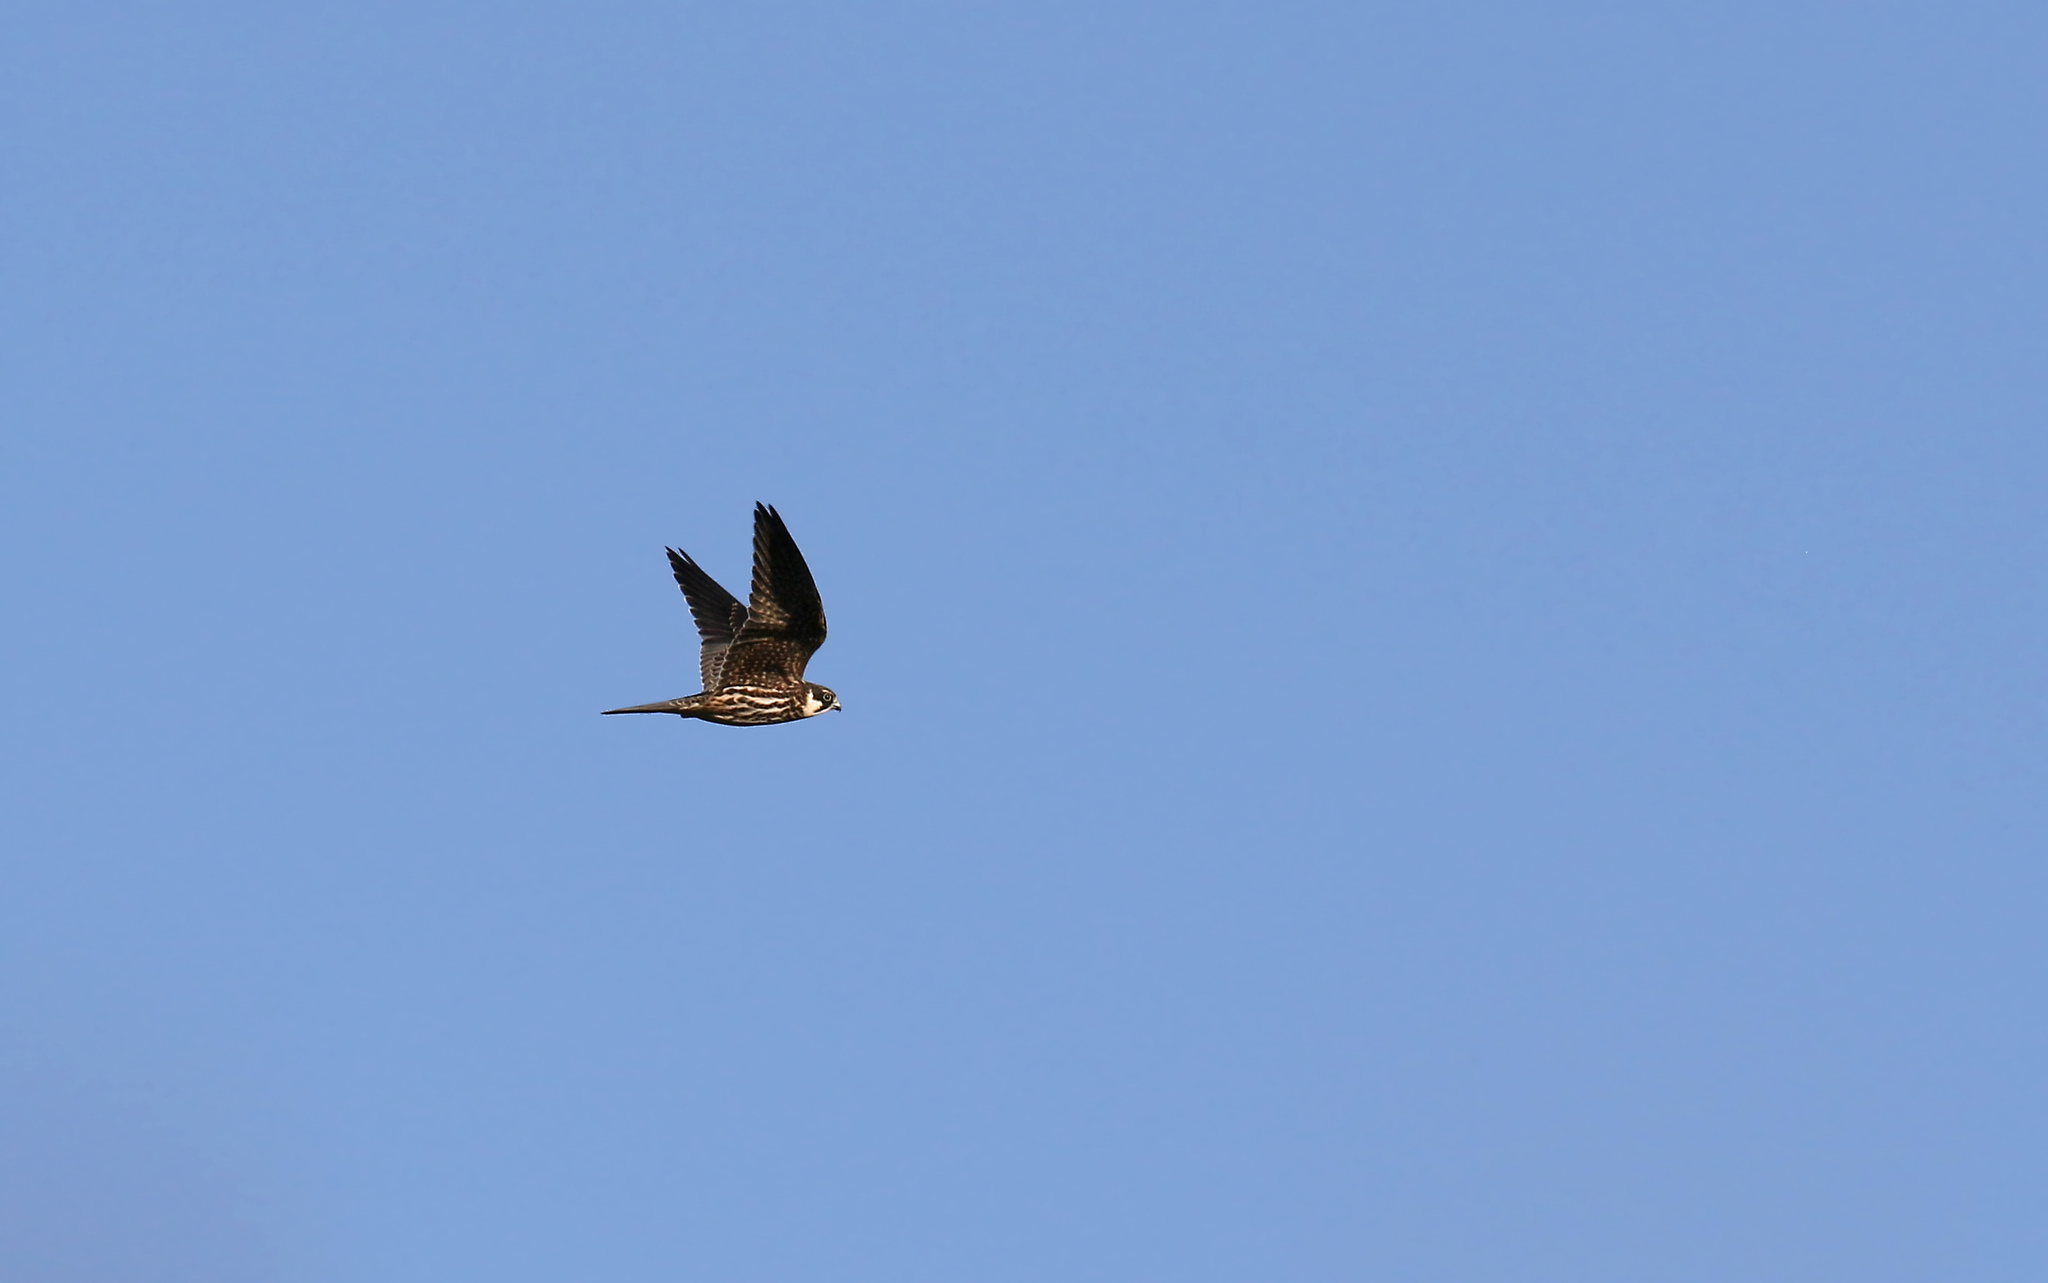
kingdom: Animalia
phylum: Chordata
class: Aves
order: Falconiformes
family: Falconidae
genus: Falco
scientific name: Falco subbuteo
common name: Eurasian hobby
